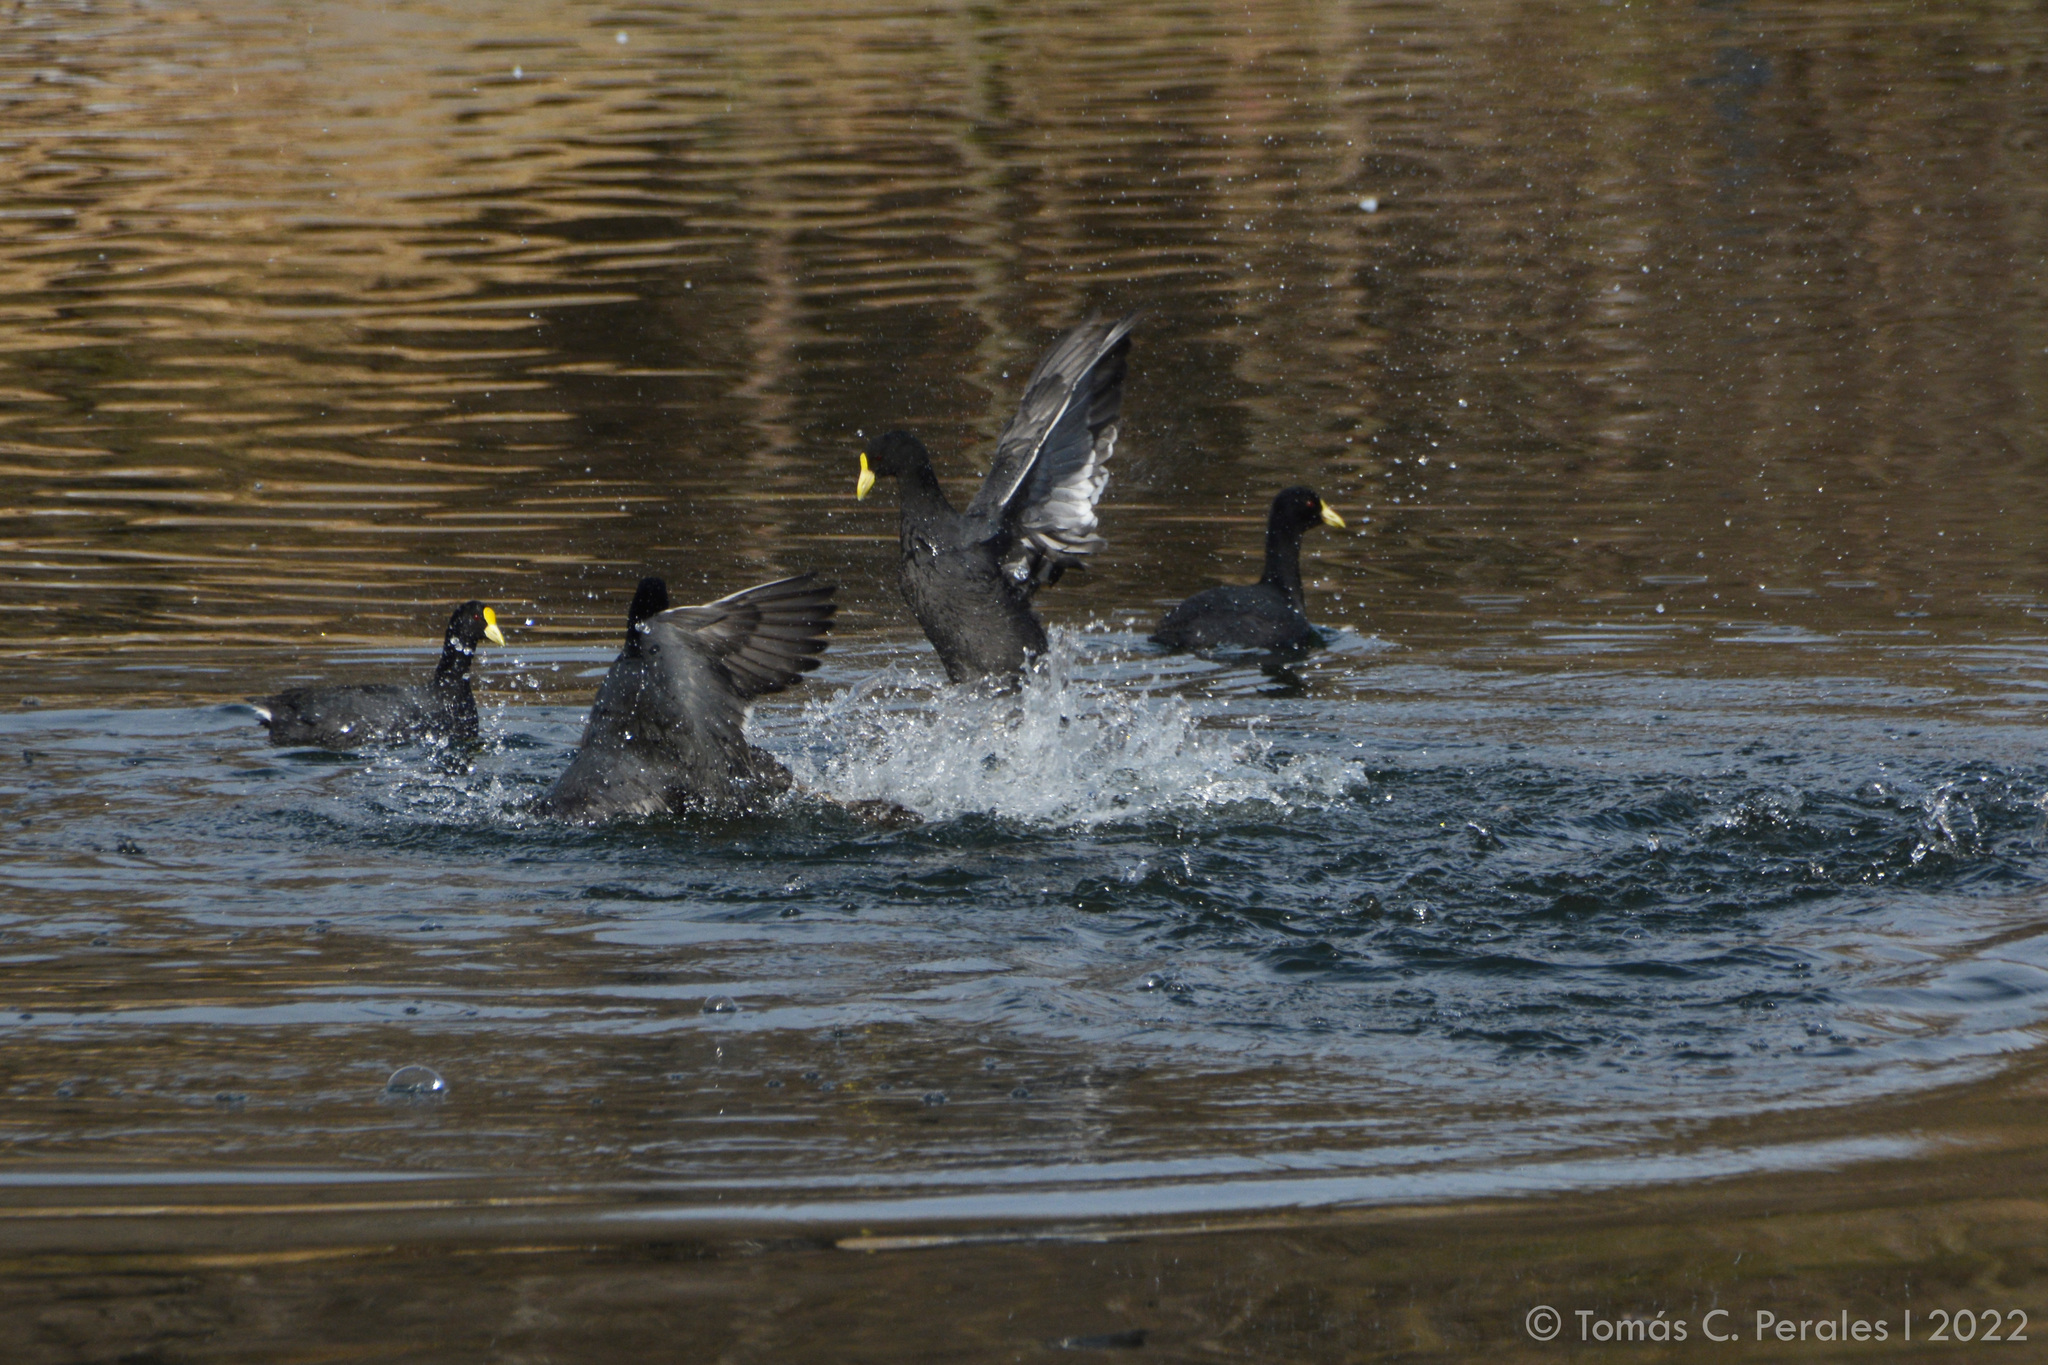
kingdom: Animalia
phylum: Chordata
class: Aves
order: Gruiformes
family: Rallidae
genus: Fulica
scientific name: Fulica leucoptera
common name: White-winged coot
